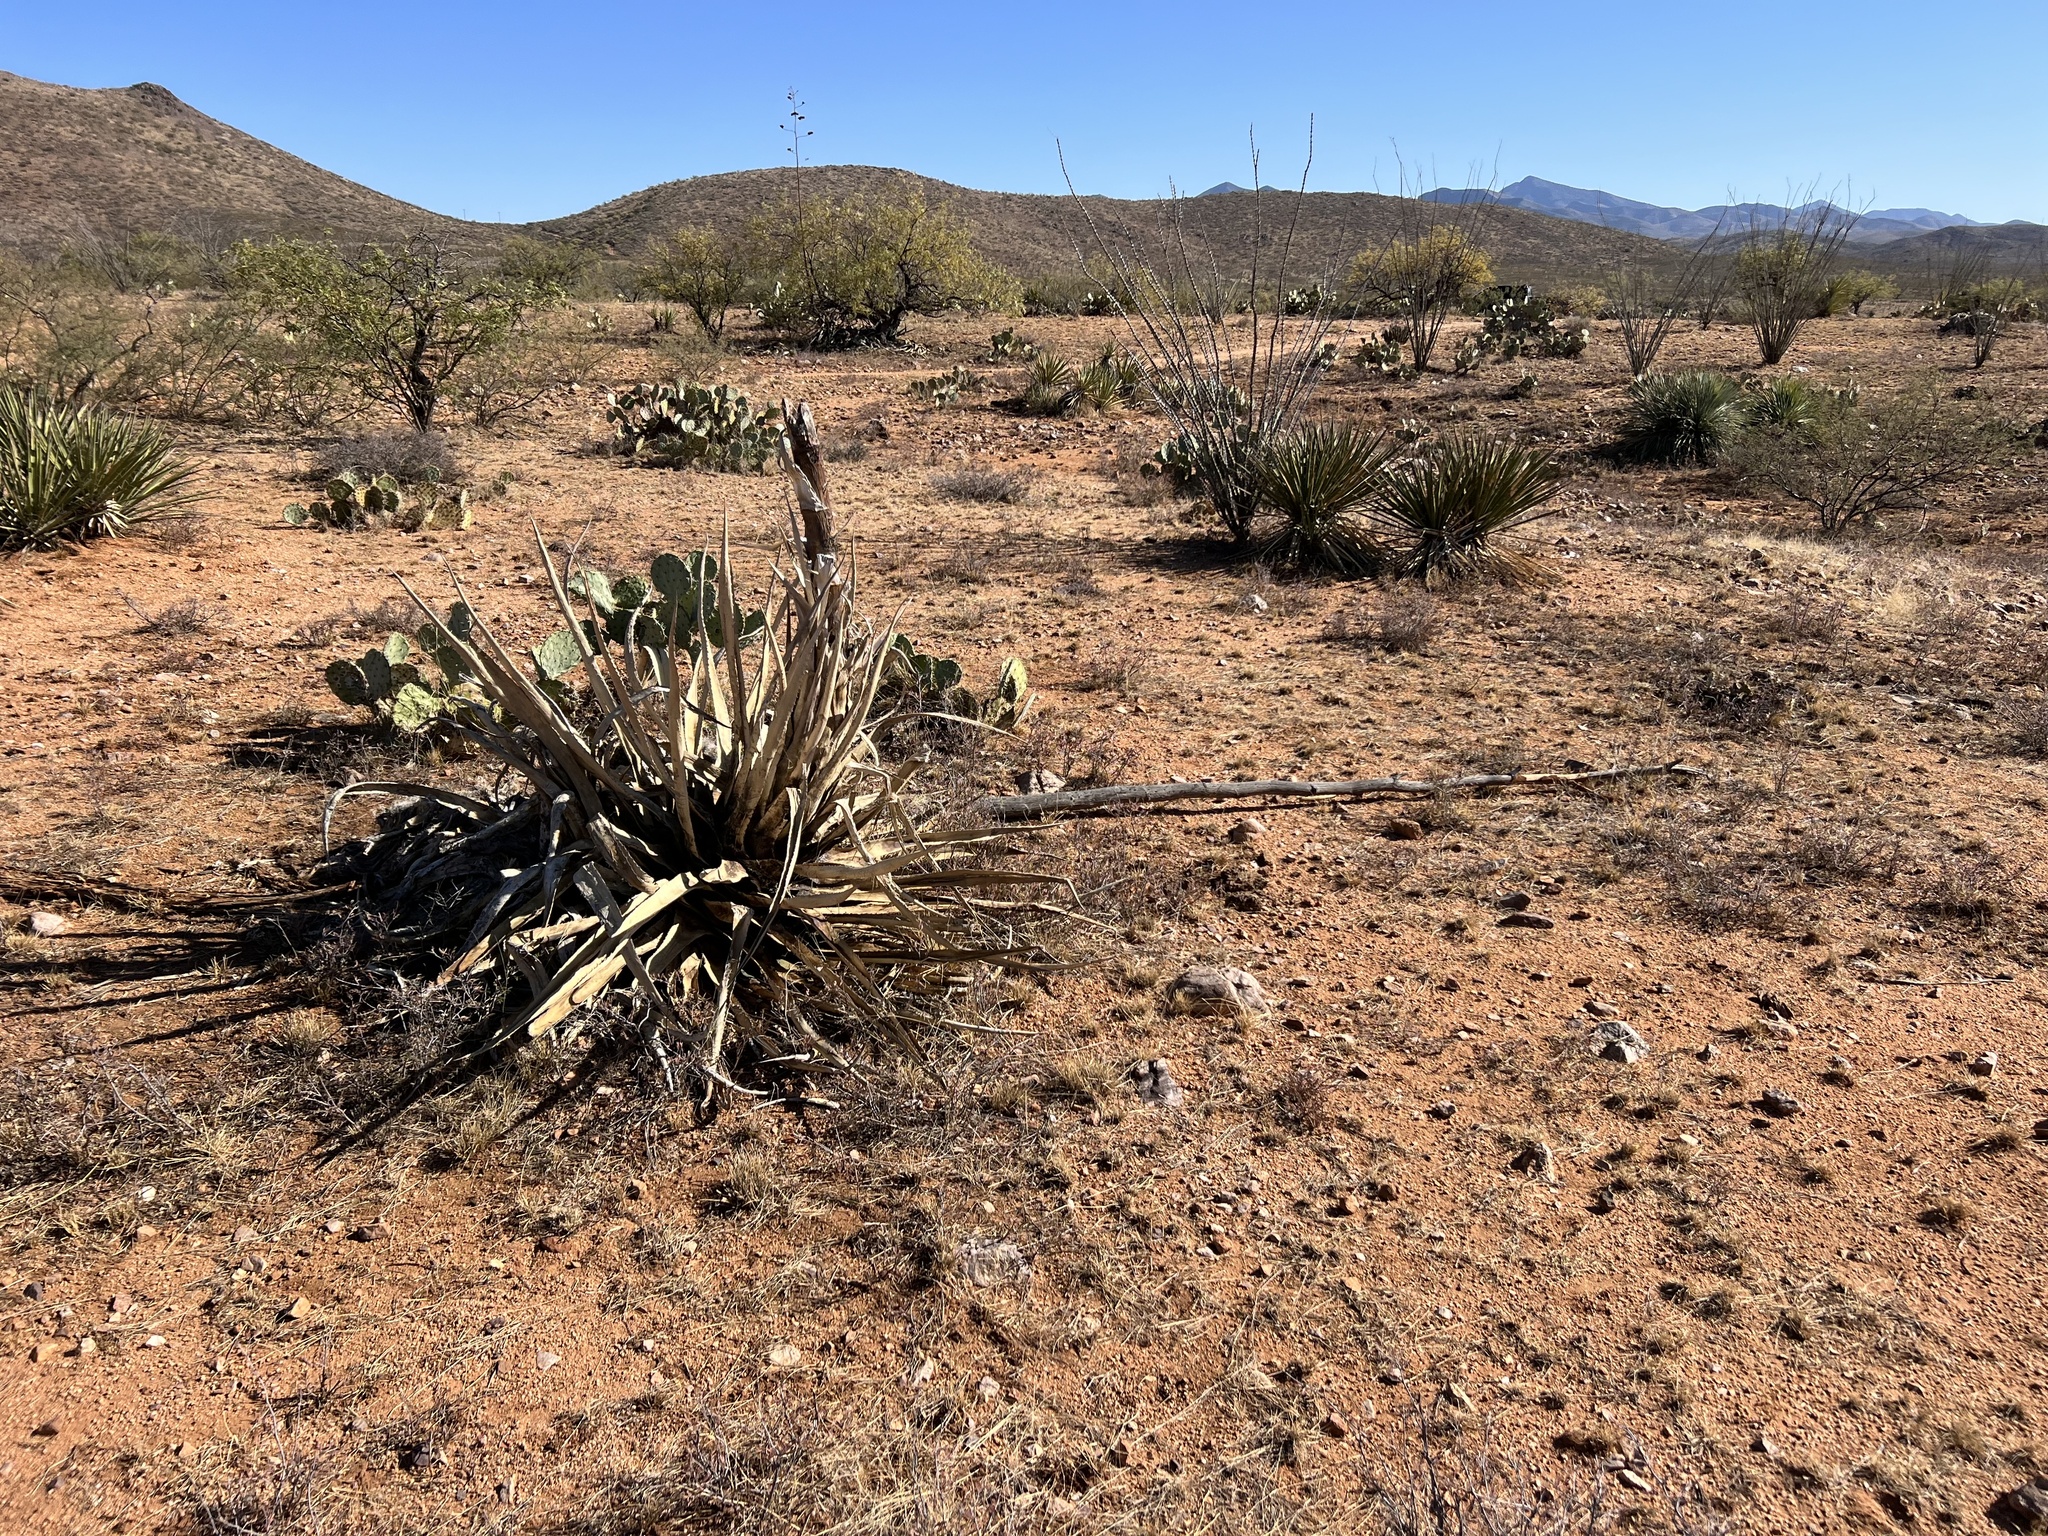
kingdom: Plantae
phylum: Tracheophyta
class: Liliopsida
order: Asparagales
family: Asparagaceae
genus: Agave
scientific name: Agave palmeri
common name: Palmer agave
